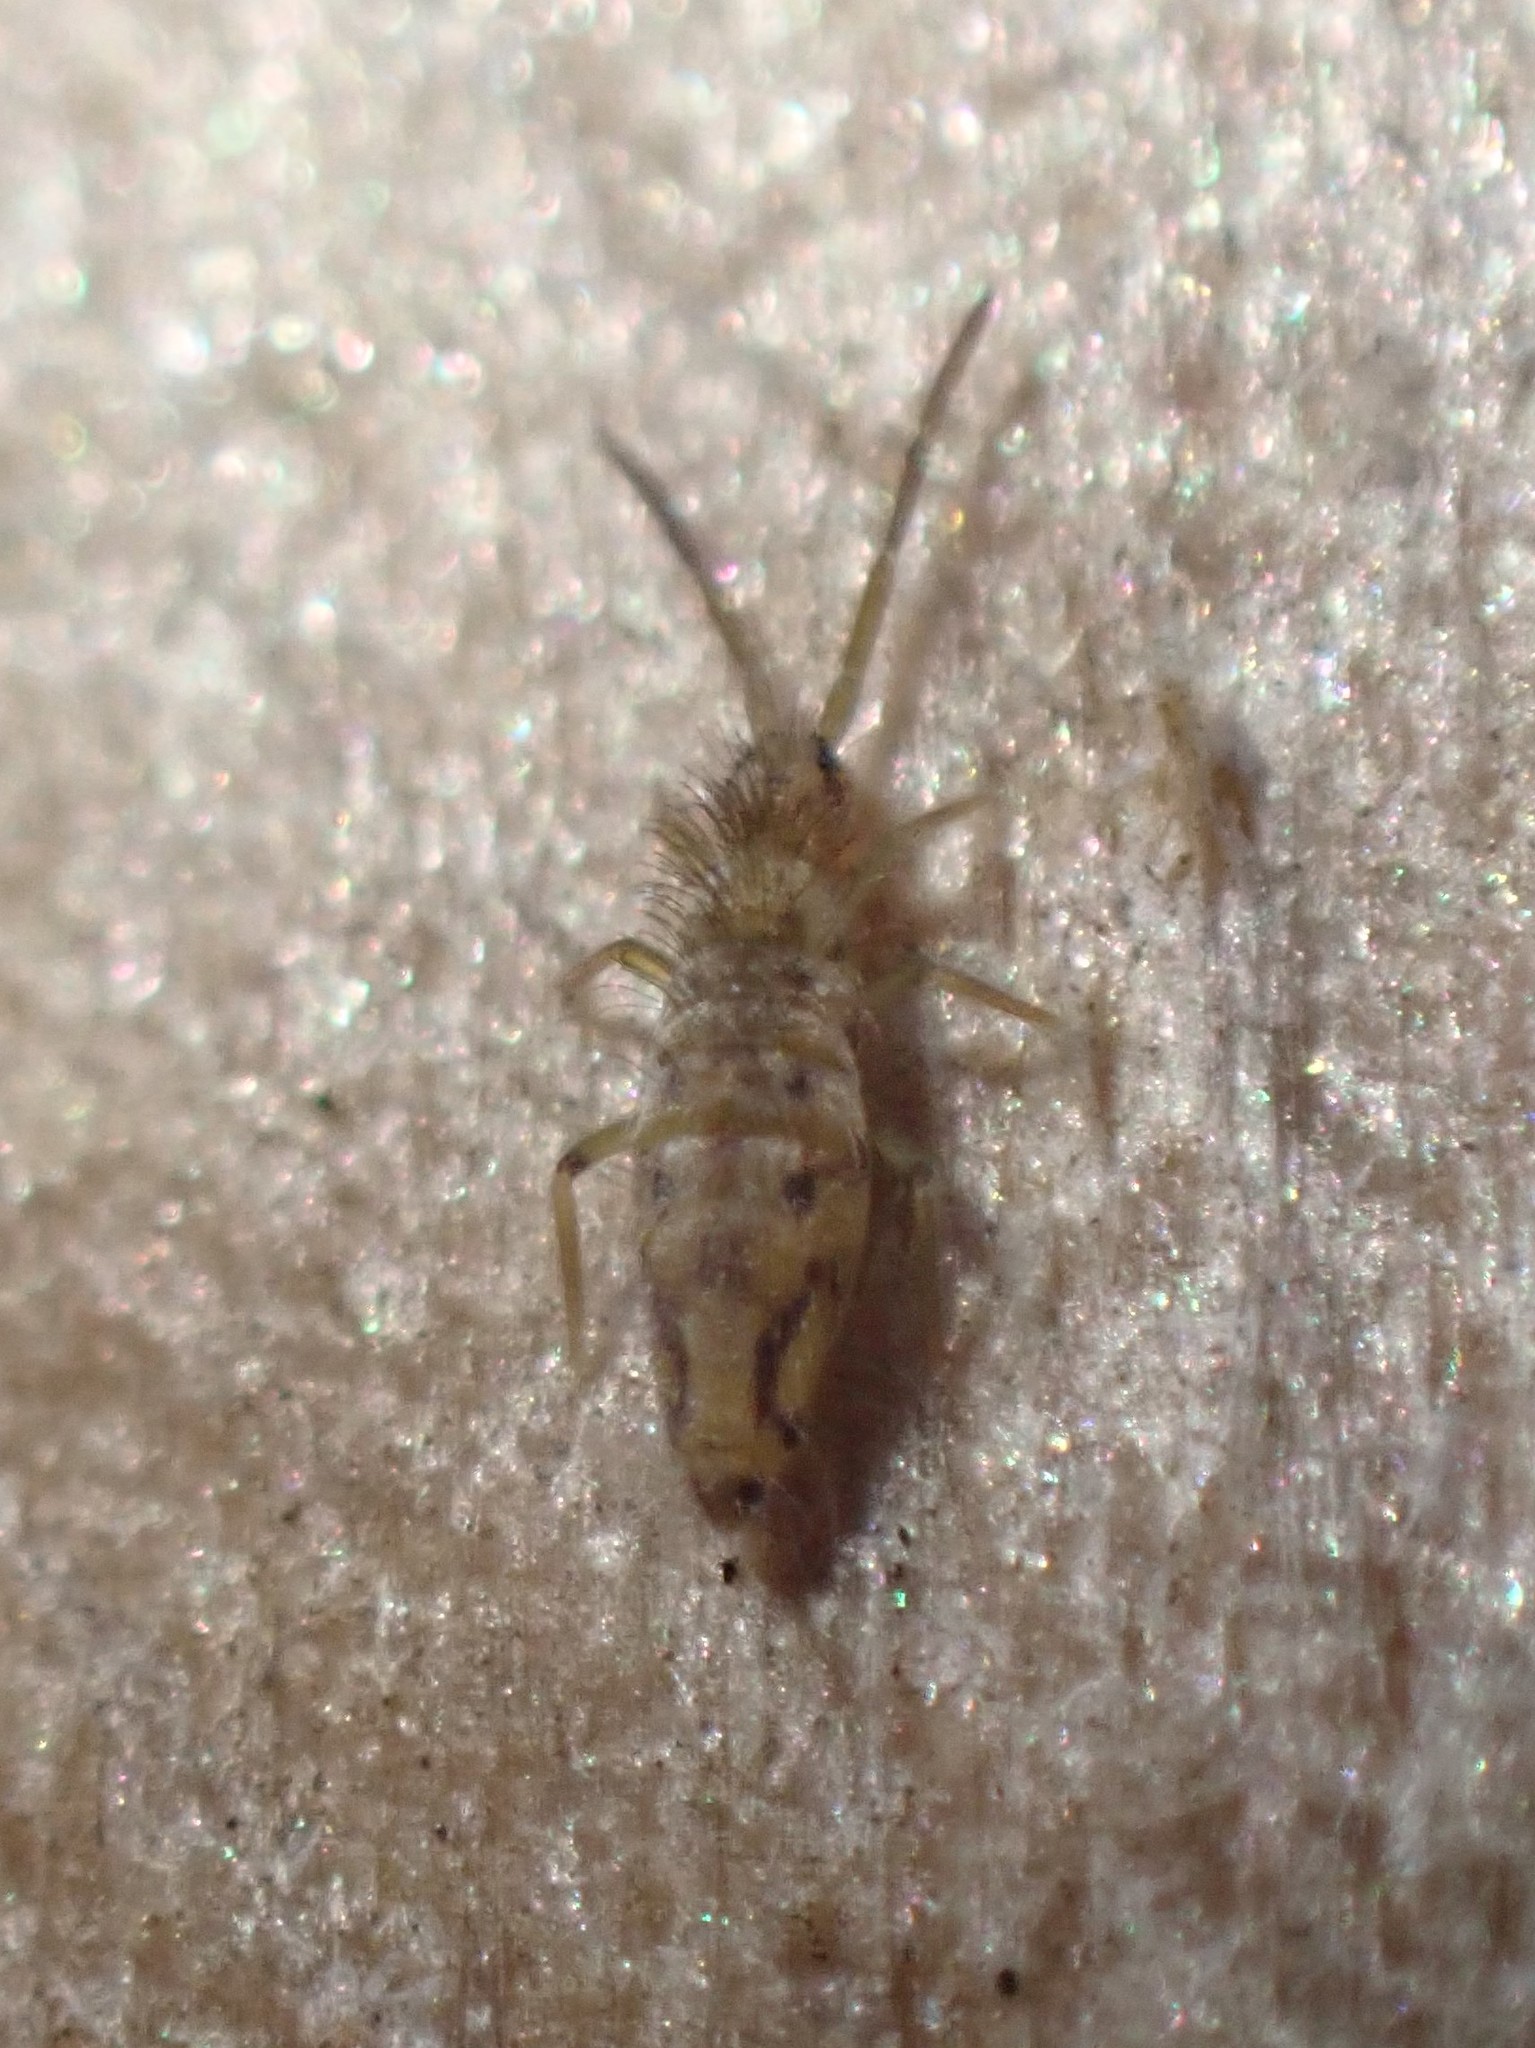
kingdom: Animalia
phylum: Arthropoda
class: Collembola
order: Entomobryomorpha
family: Entomobryidae
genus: Entomobrya
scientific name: Entomobrya katzi
